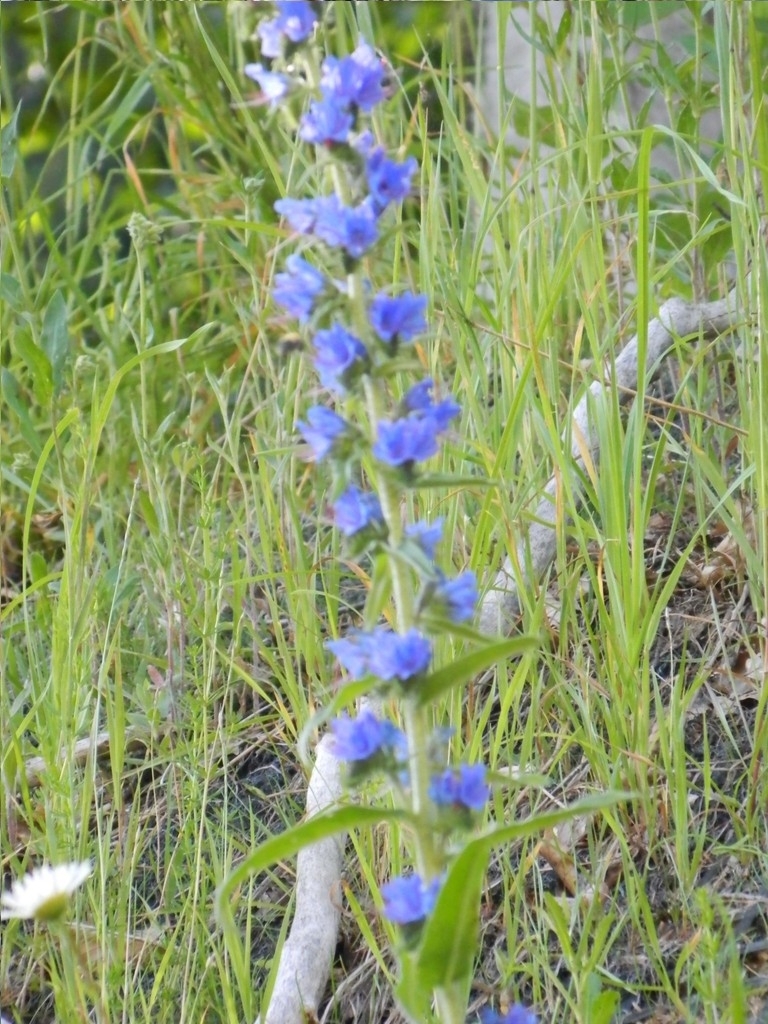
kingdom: Plantae
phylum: Tracheophyta
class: Magnoliopsida
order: Boraginales
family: Boraginaceae
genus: Echium
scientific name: Echium vulgare
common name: Common viper's bugloss
